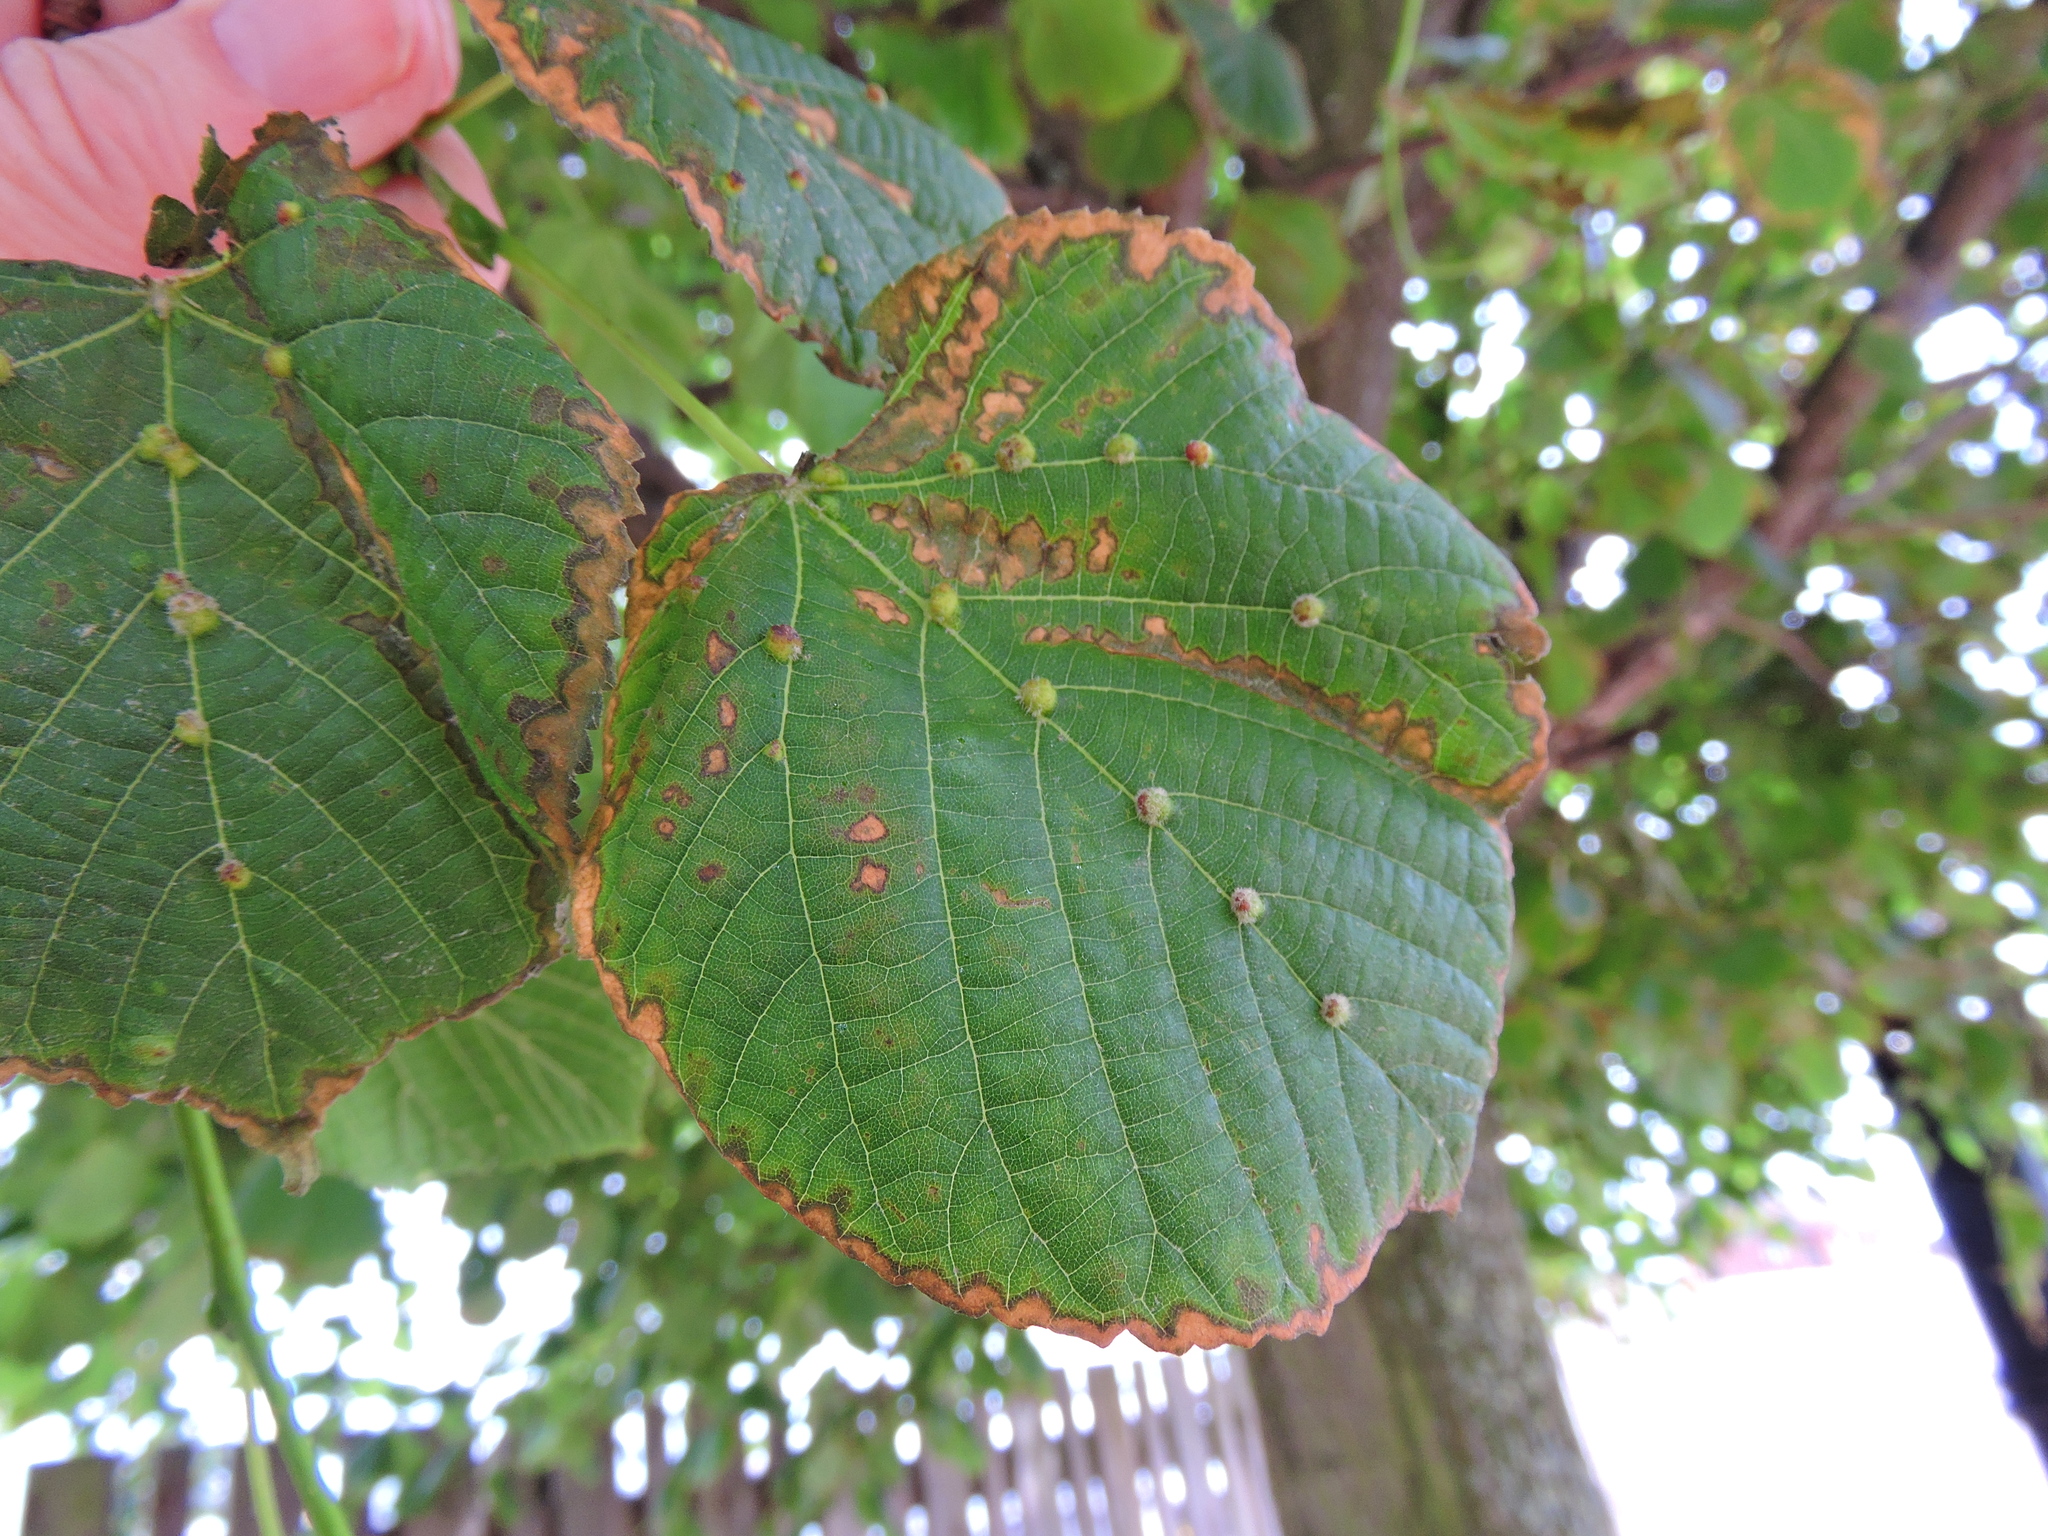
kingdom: Animalia
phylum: Arthropoda
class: Arachnida
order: Trombidiformes
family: Eriophyidae
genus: Eriophyes
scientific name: Eriophyes exilis
